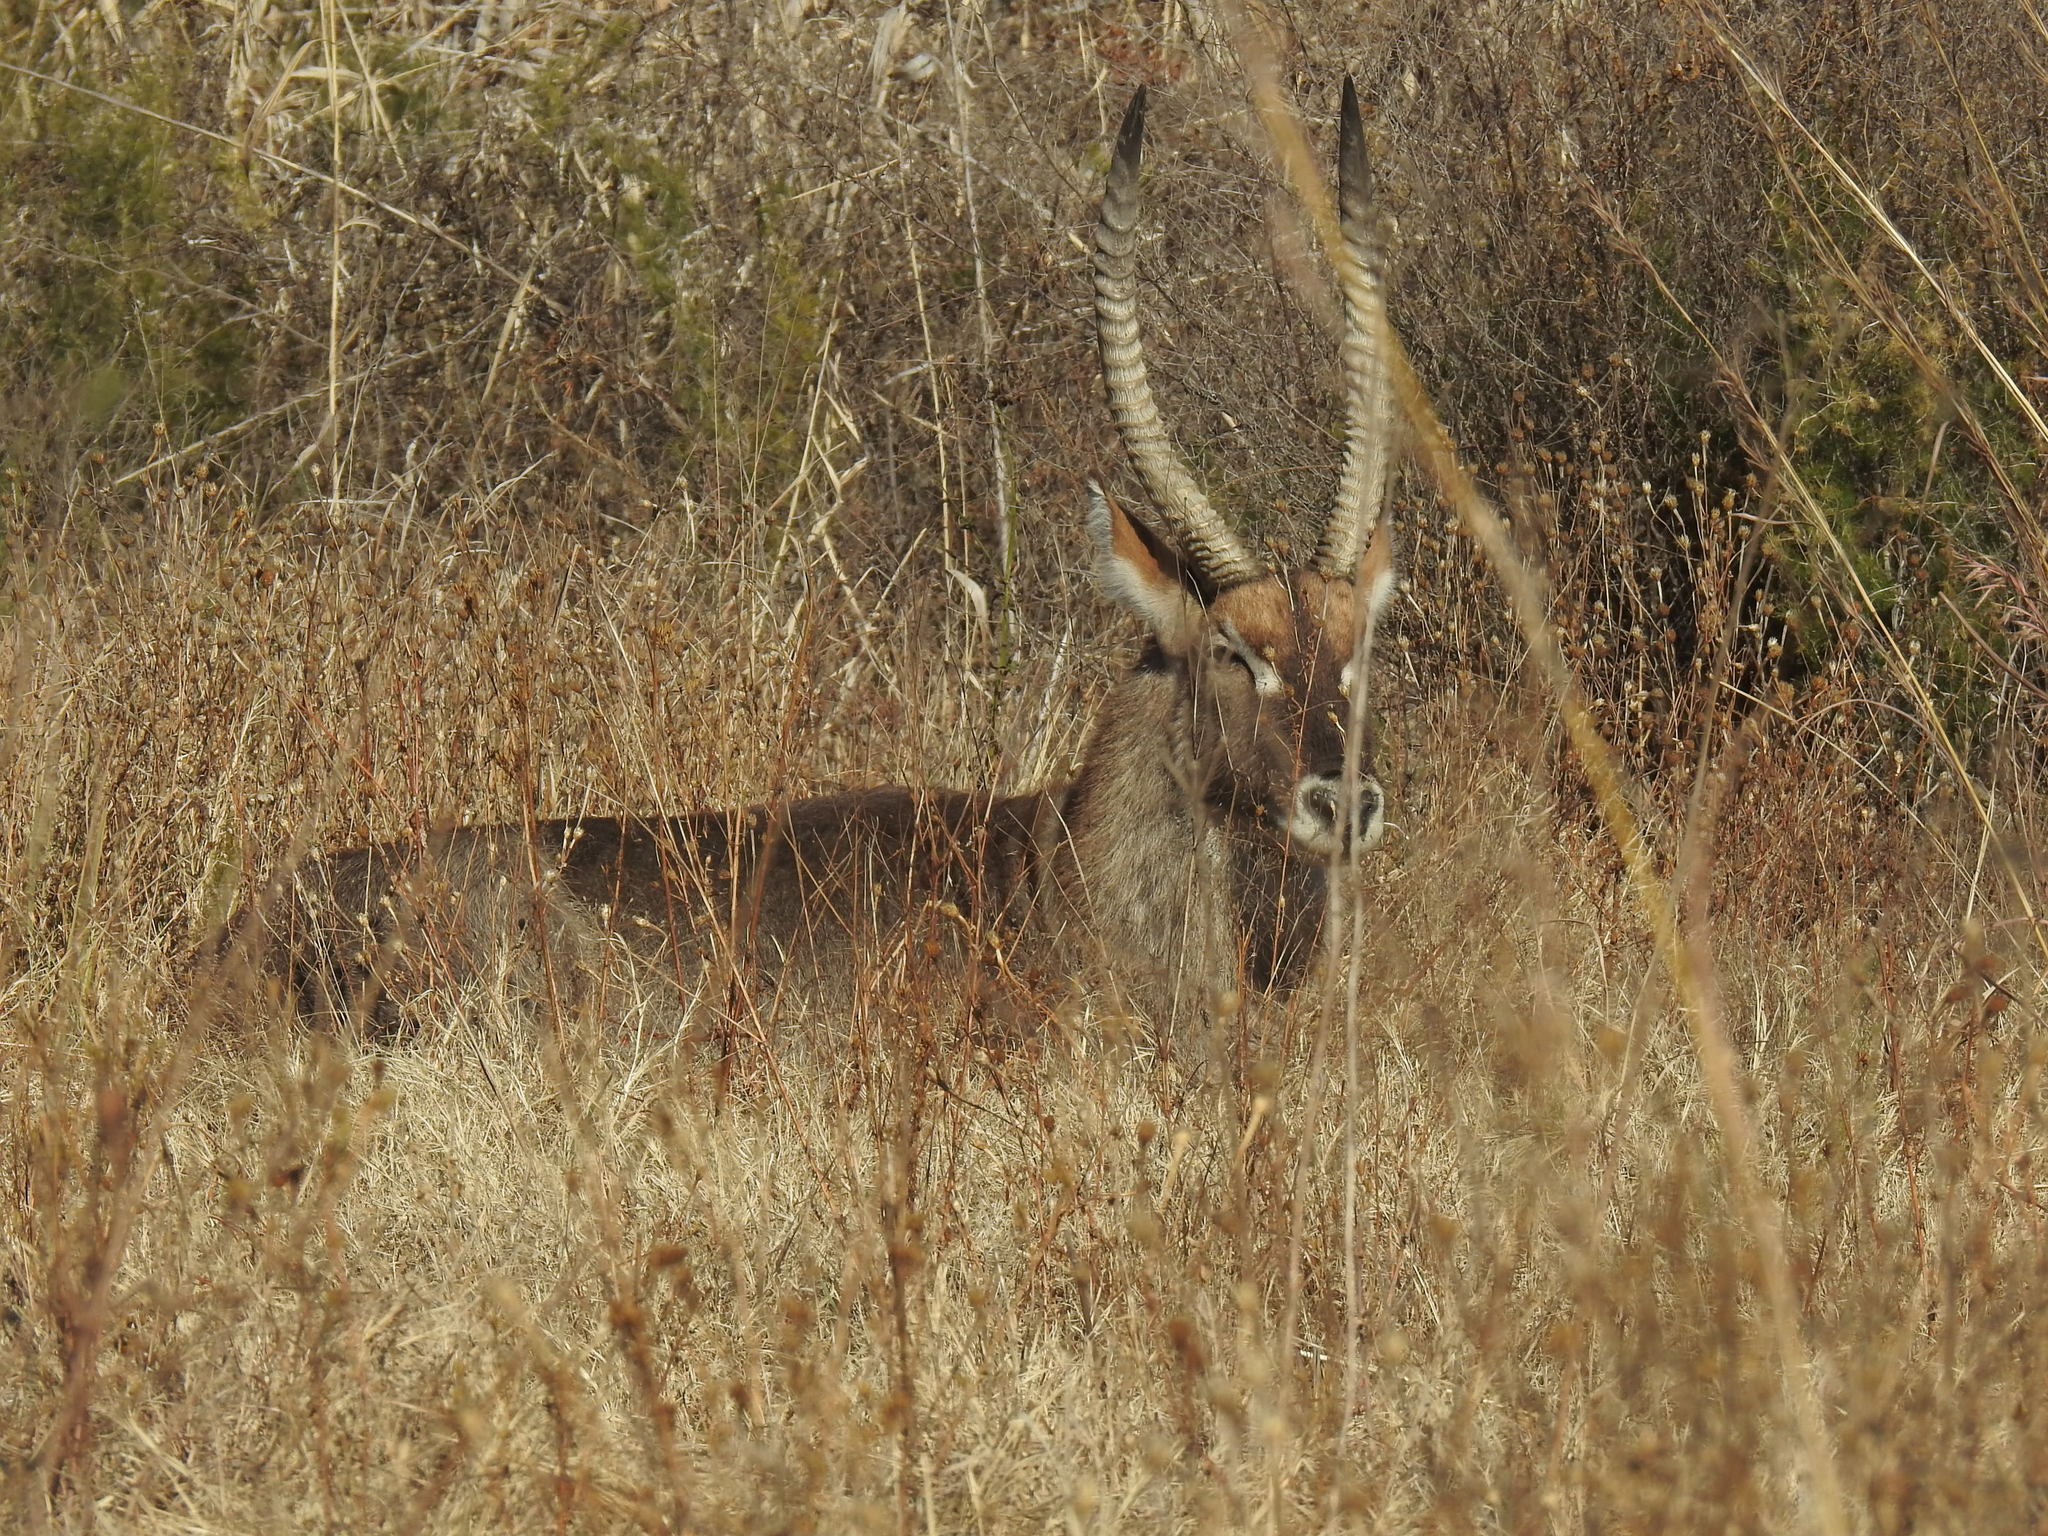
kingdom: Animalia
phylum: Chordata
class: Mammalia
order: Artiodactyla
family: Bovidae
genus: Kobus
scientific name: Kobus ellipsiprymnus
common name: Waterbuck
